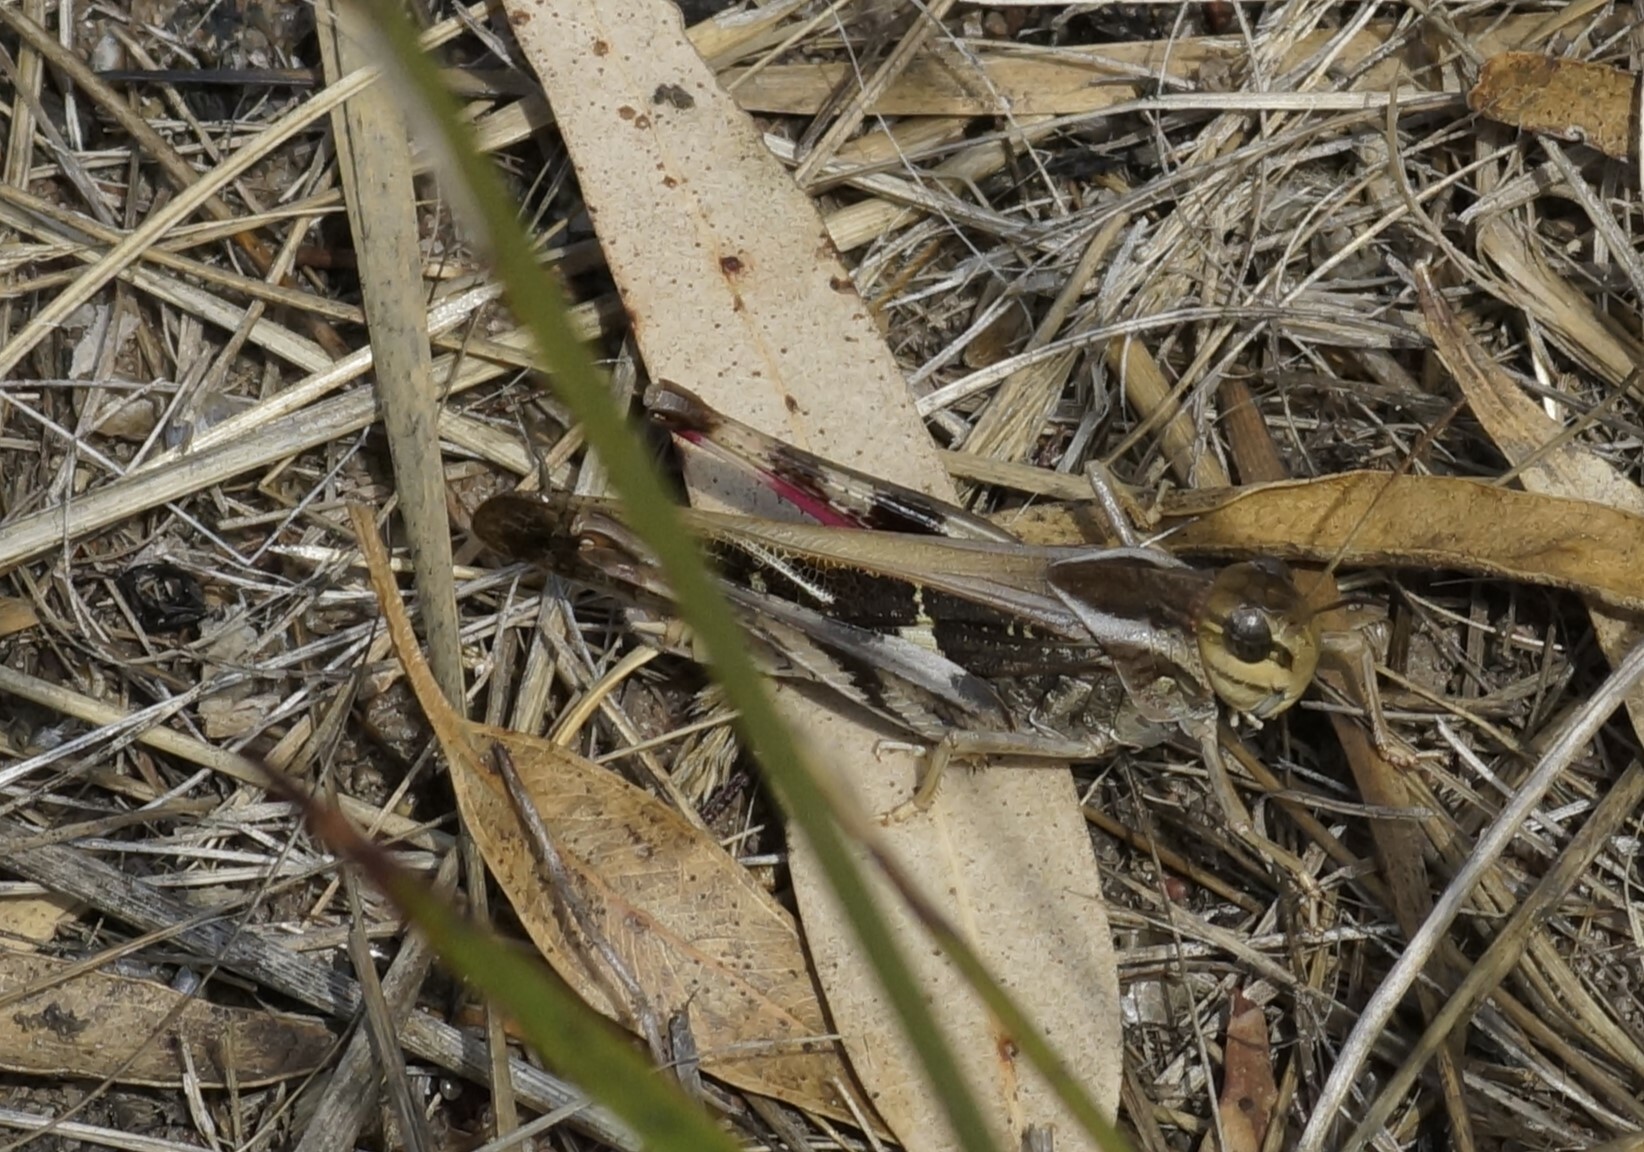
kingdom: Animalia
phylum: Arthropoda
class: Insecta
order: Orthoptera
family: Acrididae
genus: Gastrimargus
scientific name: Gastrimargus musicus
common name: Yellow-winged locust
